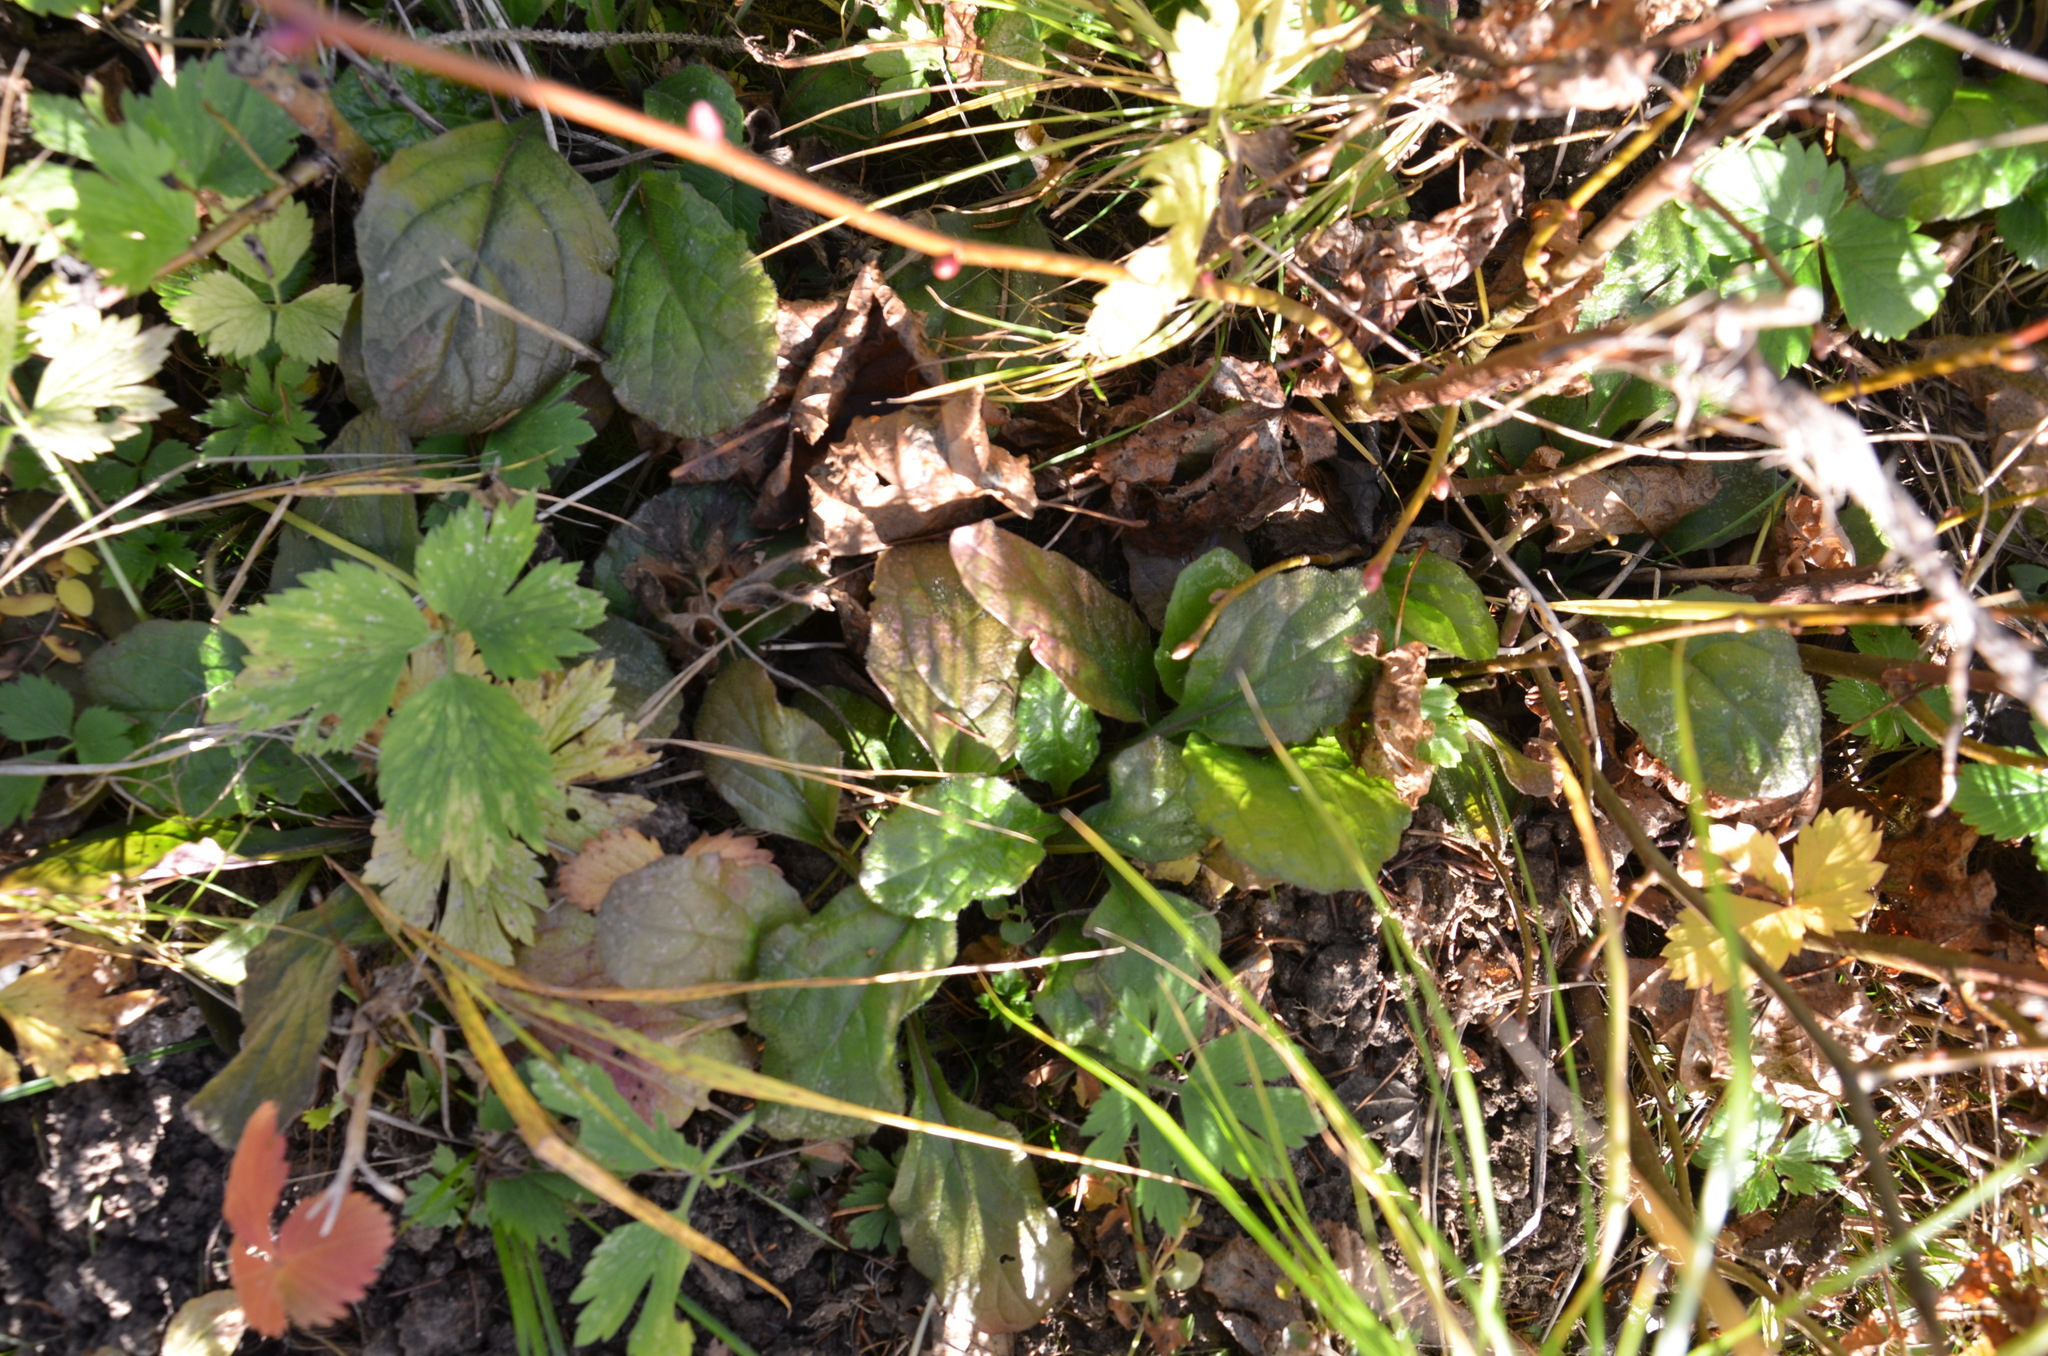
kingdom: Plantae
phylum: Tracheophyta
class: Magnoliopsida
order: Lamiales
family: Lamiaceae
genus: Ajuga
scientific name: Ajuga reptans
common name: Bugle
